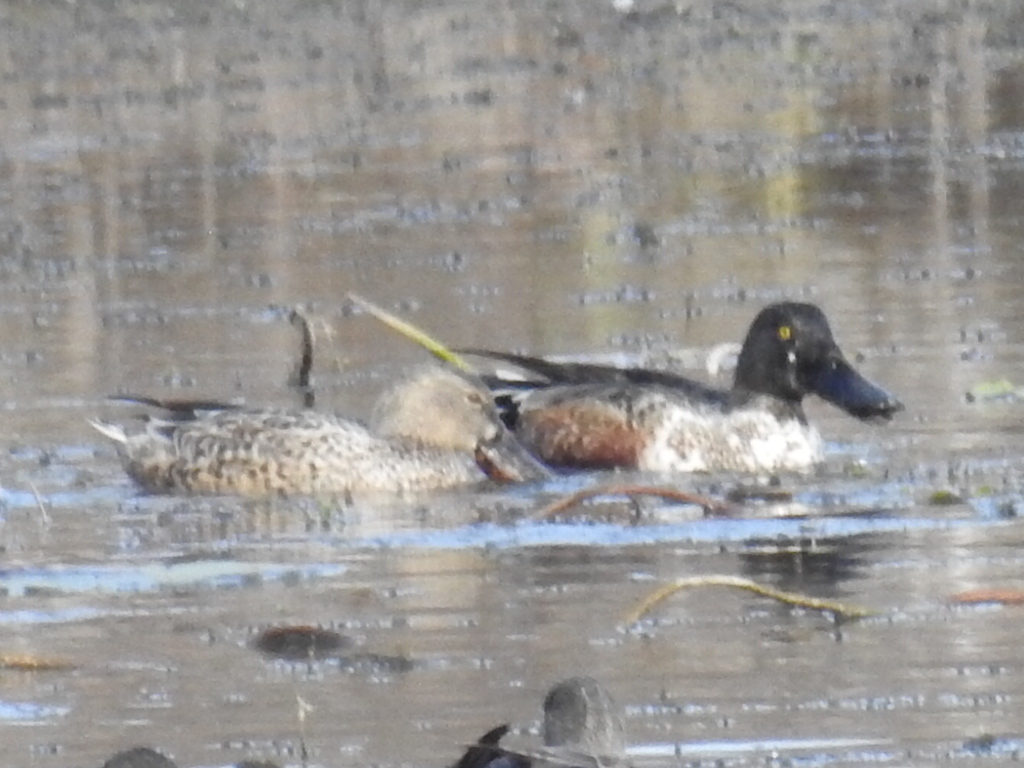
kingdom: Animalia
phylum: Chordata
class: Aves
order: Anseriformes
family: Anatidae
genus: Spatula
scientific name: Spatula clypeata
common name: Northern shoveler
